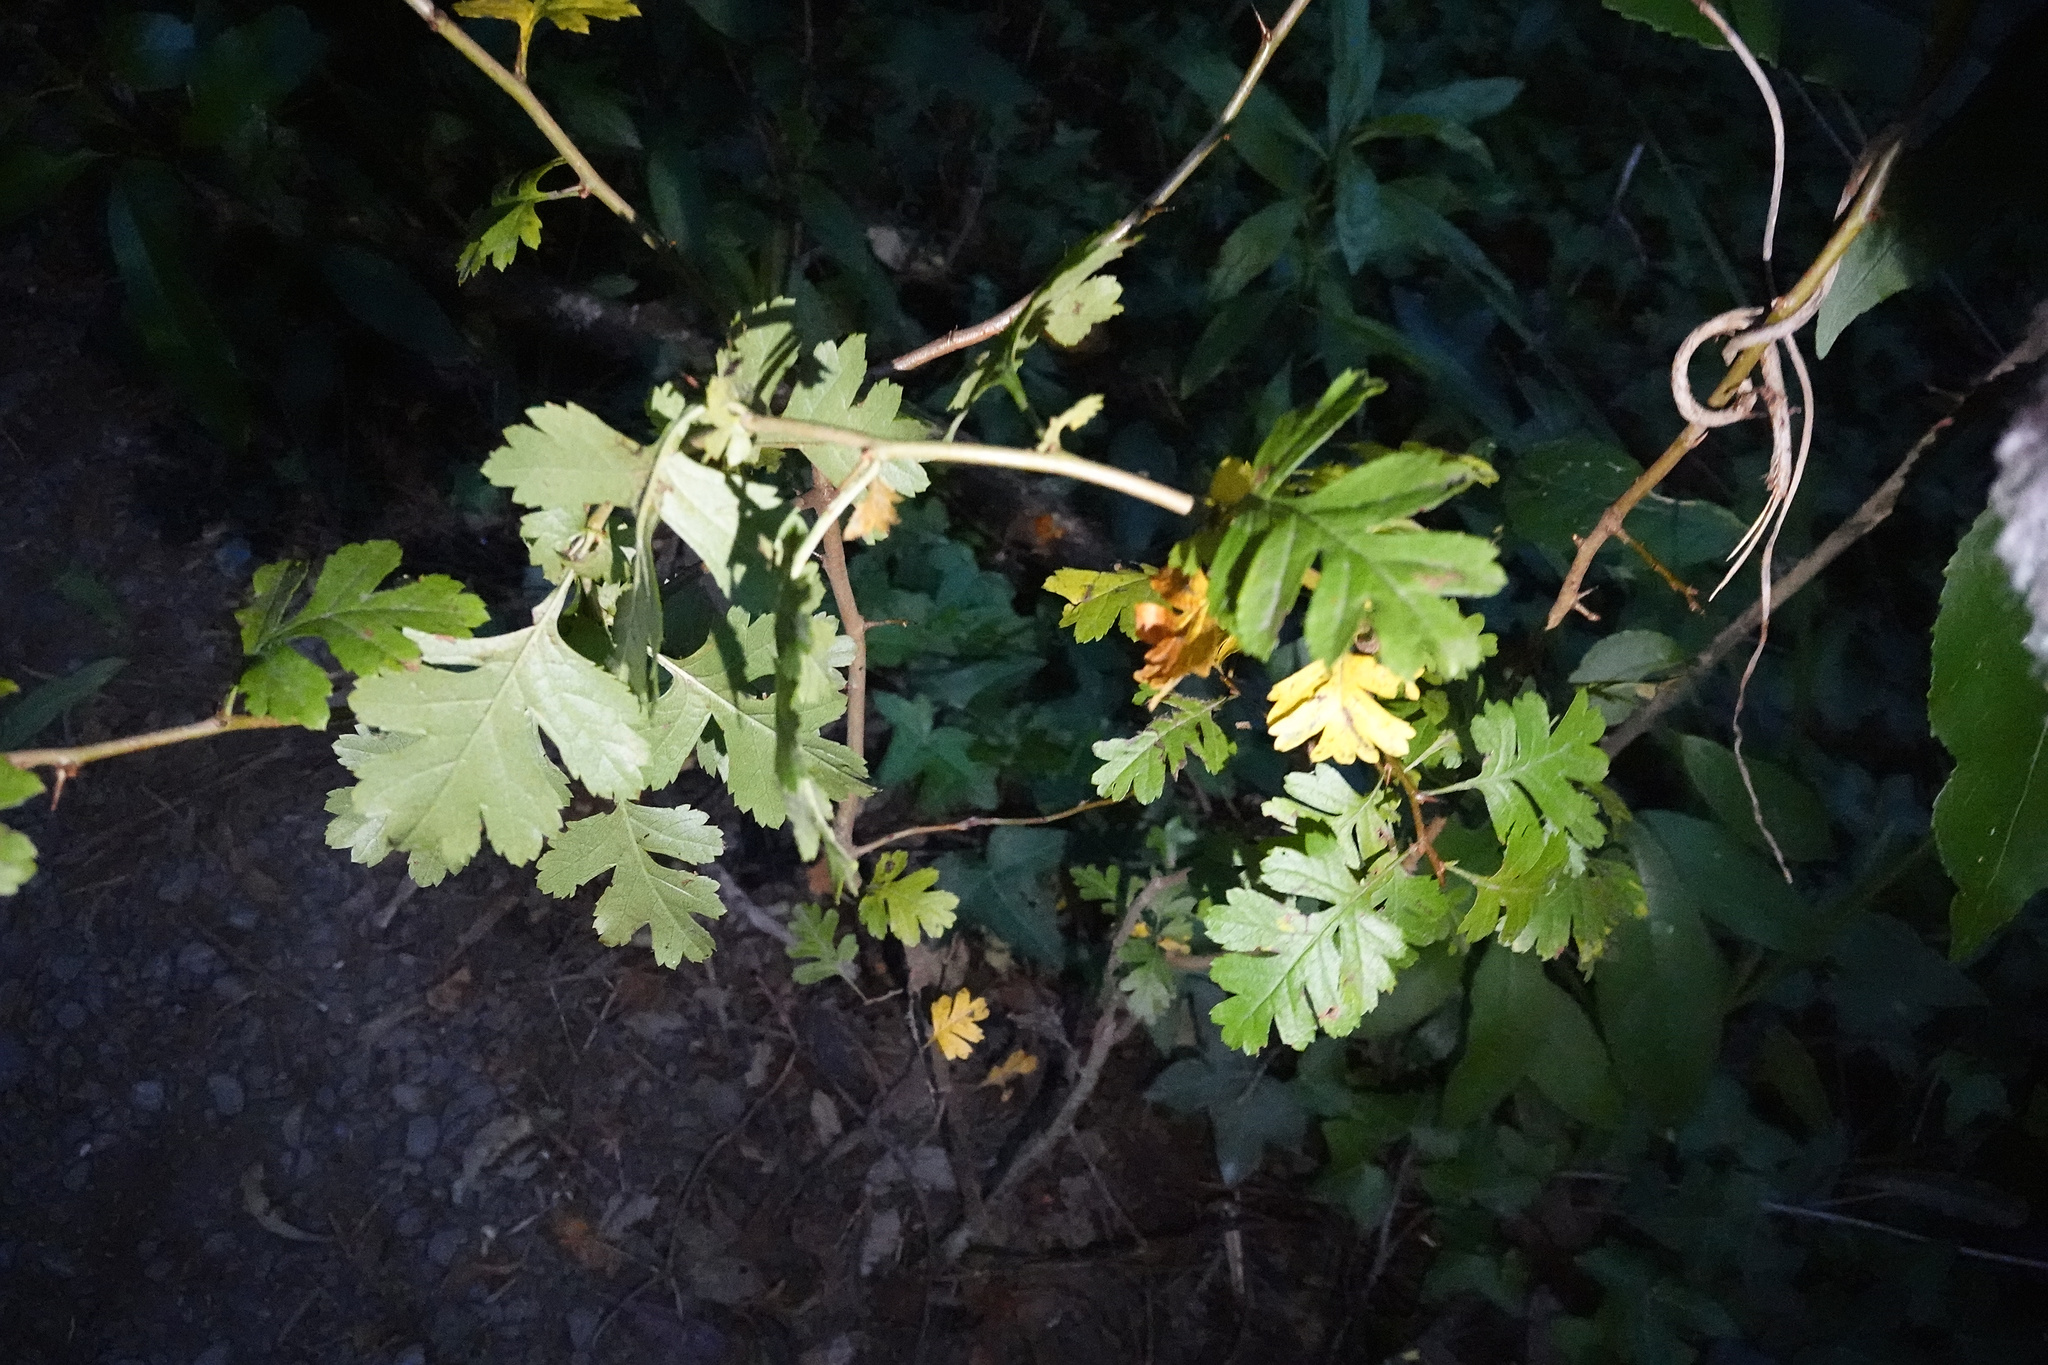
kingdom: Plantae
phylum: Tracheophyta
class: Magnoliopsida
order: Rosales
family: Rosaceae
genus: Crataegus
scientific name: Crataegus monogyna
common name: Hawthorn
